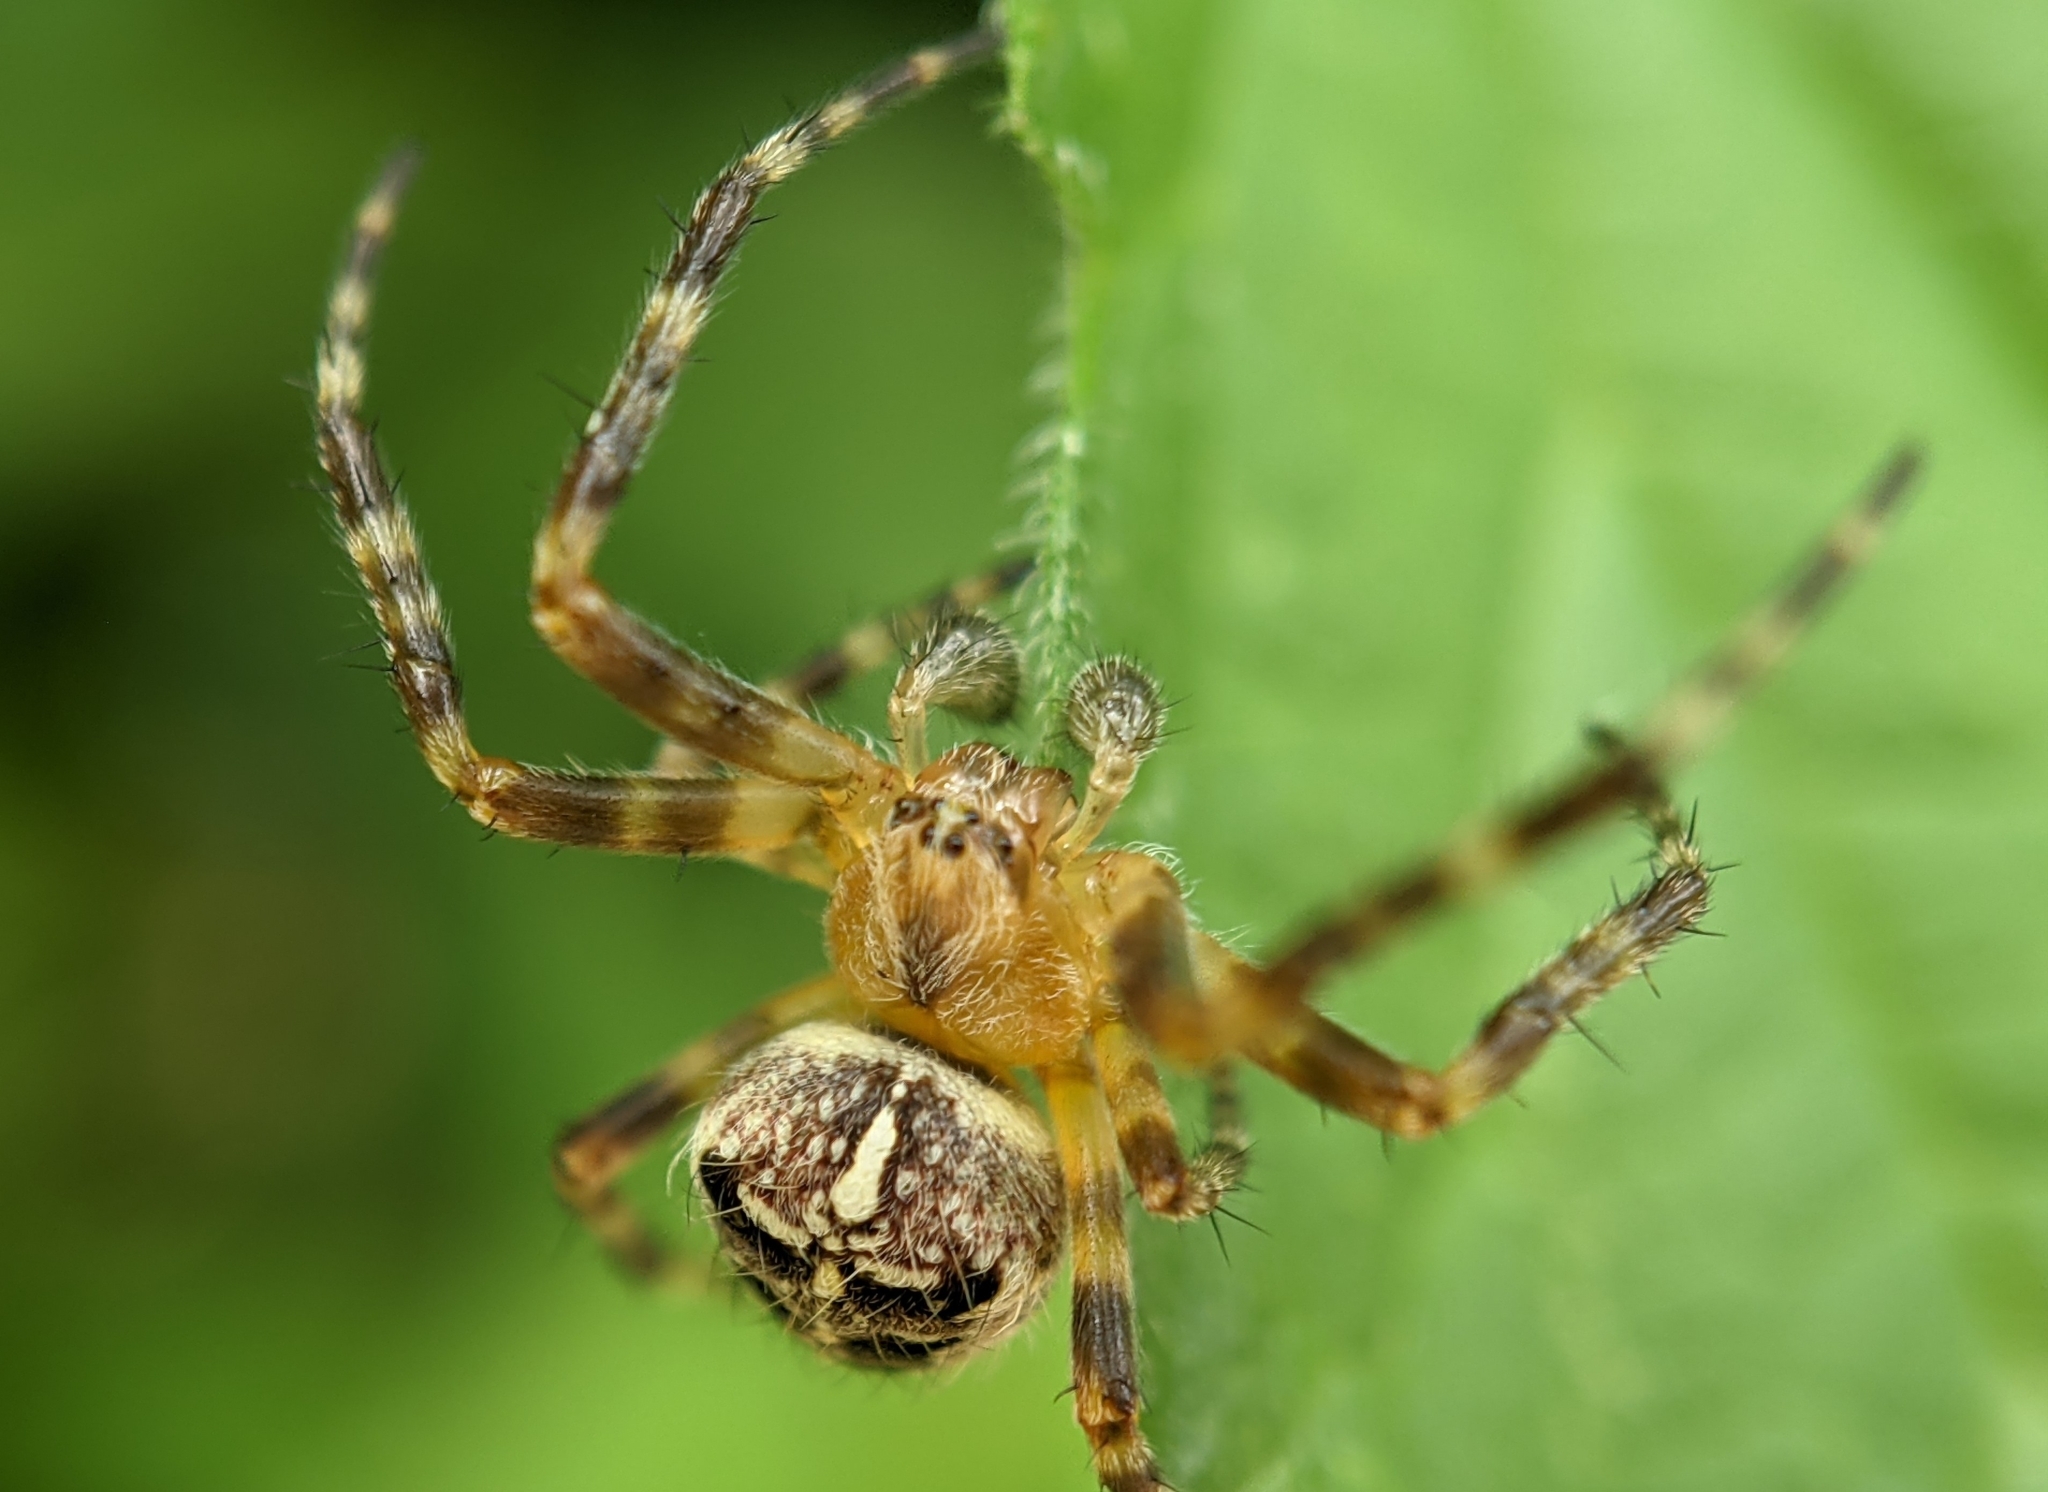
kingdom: Animalia
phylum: Arthropoda
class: Arachnida
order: Araneae
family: Araneidae
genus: Araneus
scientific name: Araneus diadematus
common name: Cross orbweaver
